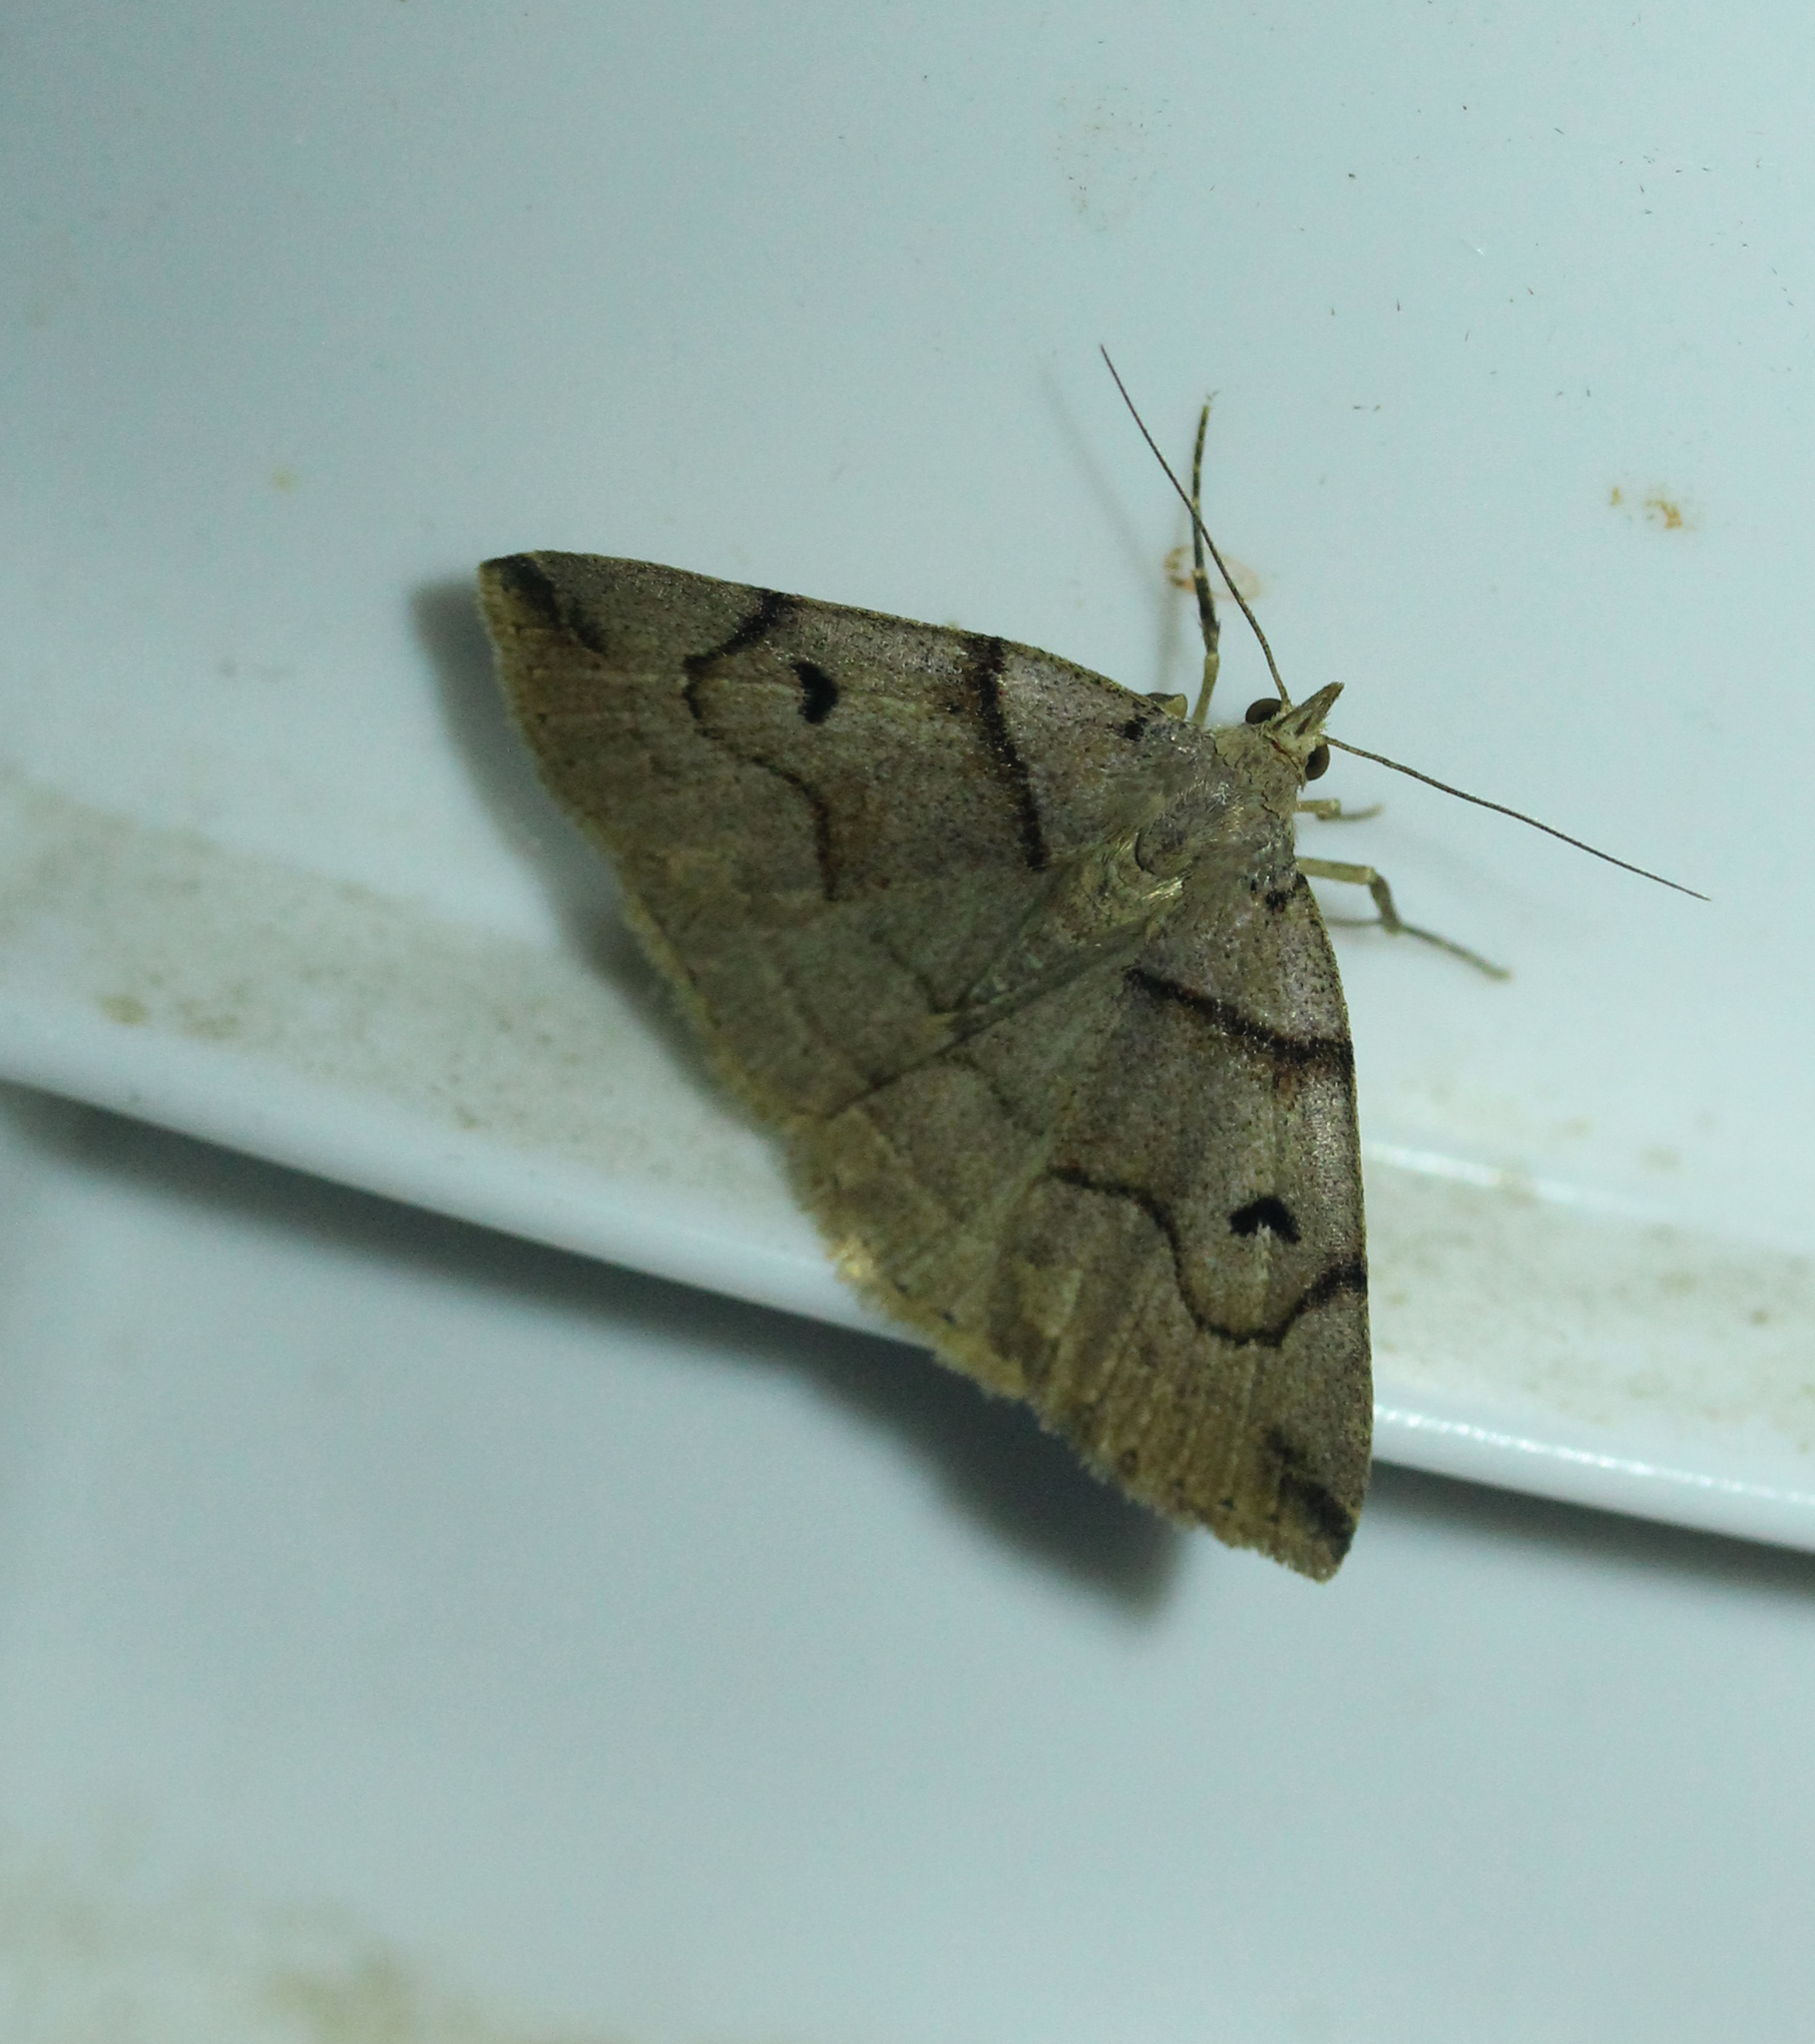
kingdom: Animalia
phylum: Arthropoda
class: Insecta
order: Lepidoptera
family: Erebidae
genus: Zanclognatha
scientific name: Zanclognatha laevigata
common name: Variable fan-foot
